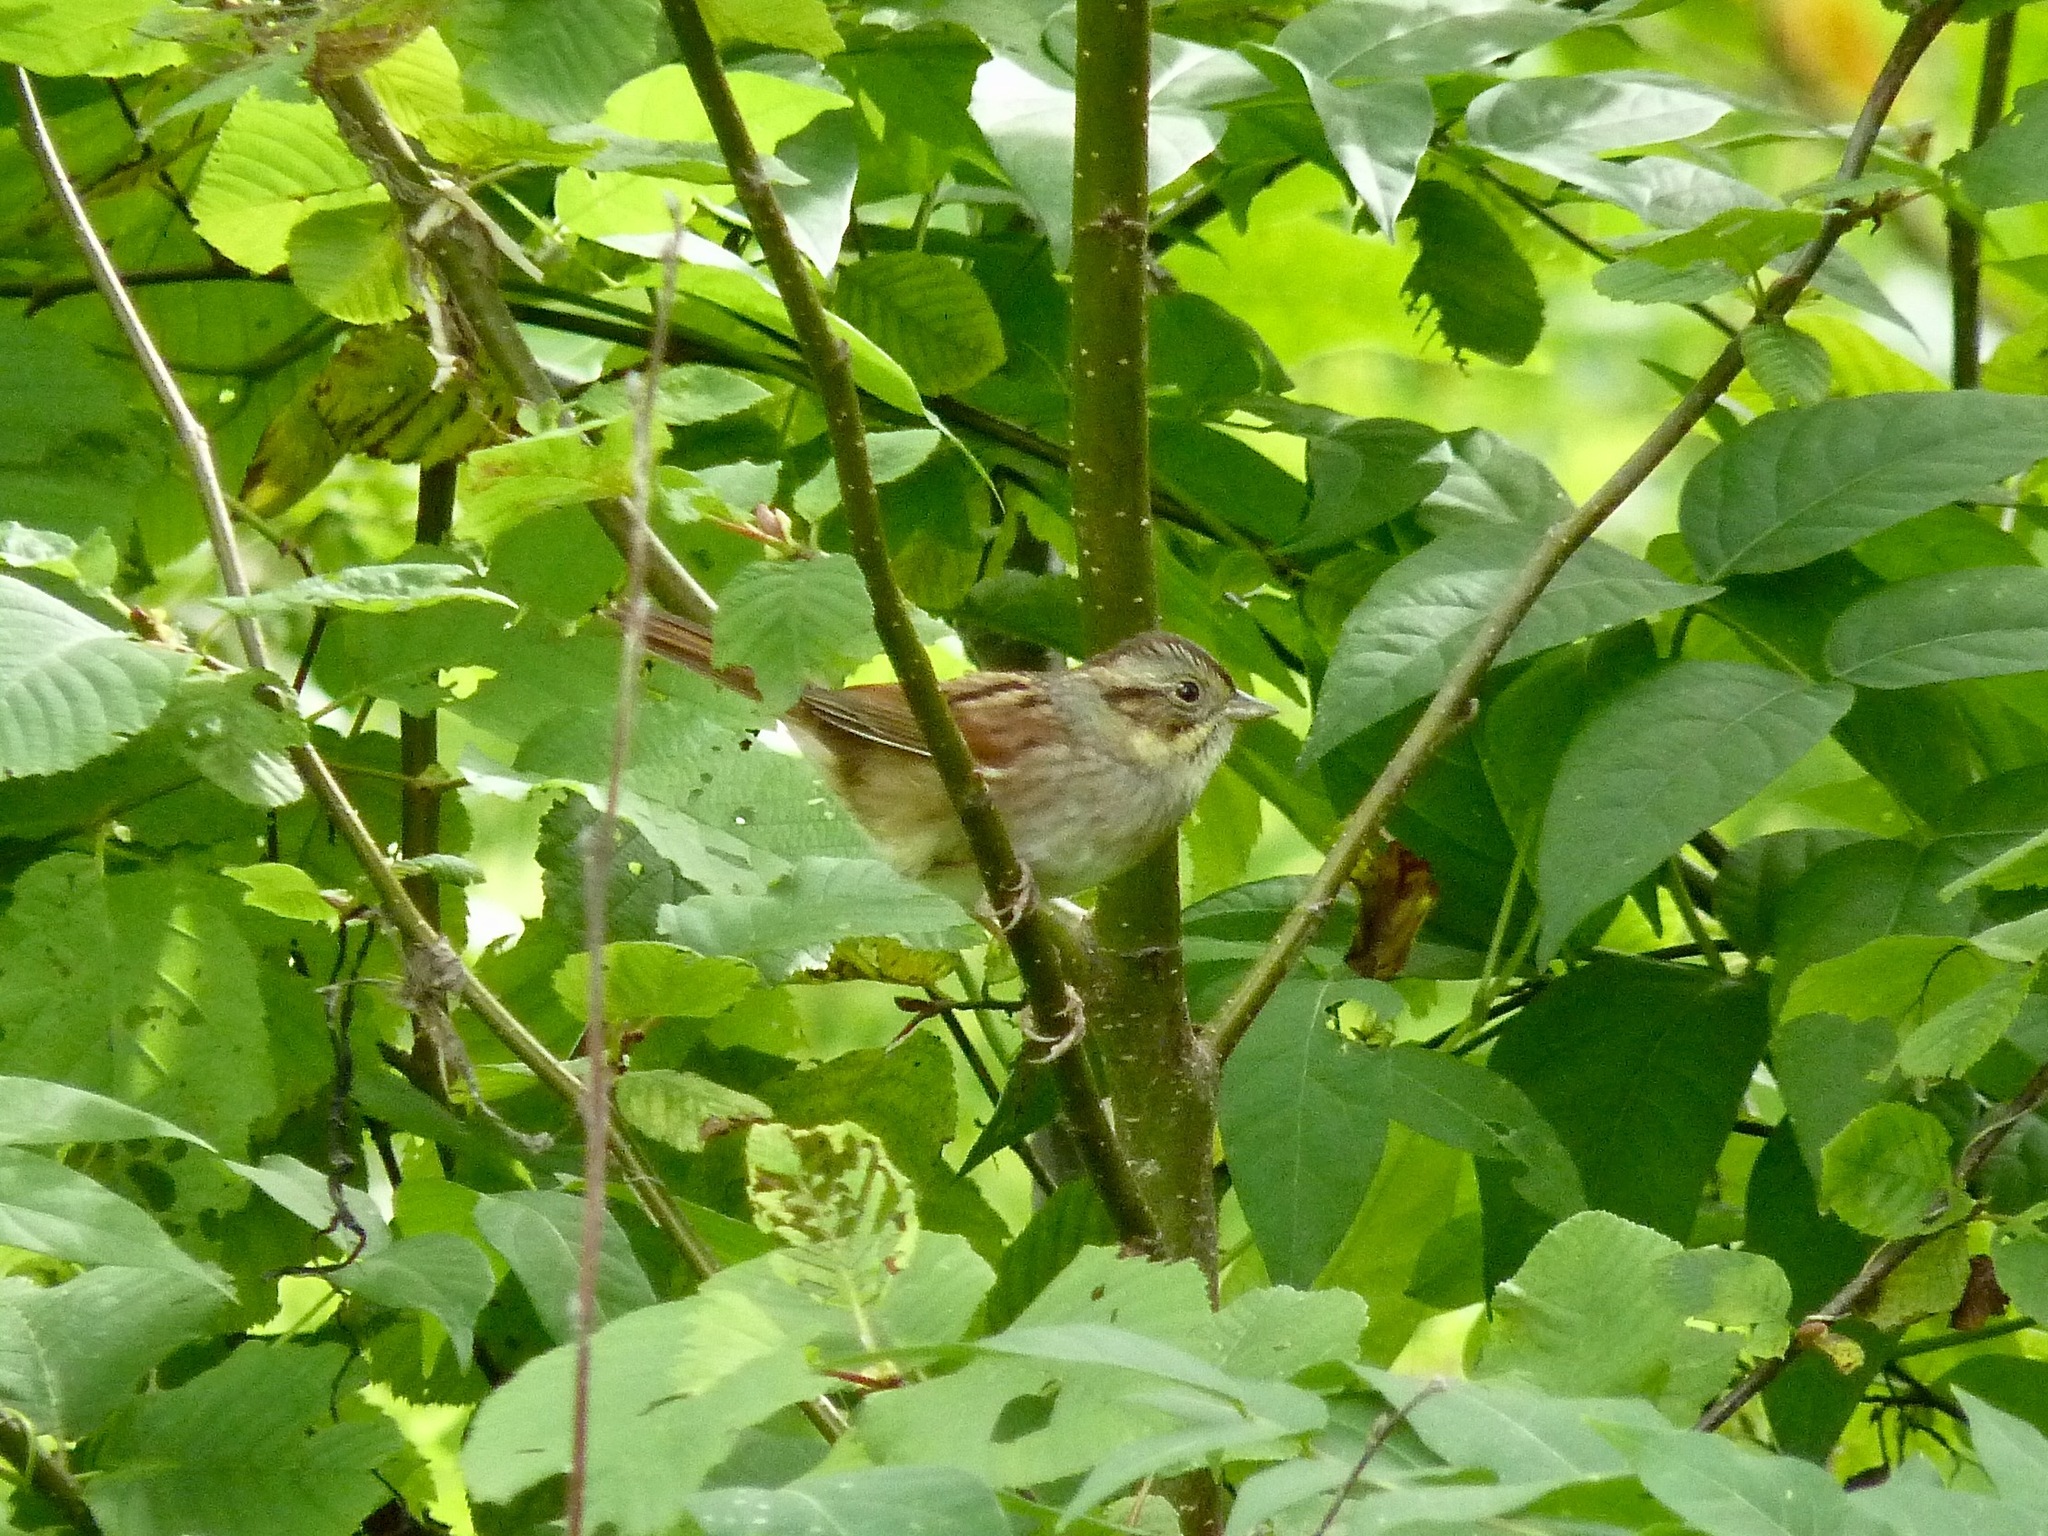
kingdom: Animalia
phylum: Chordata
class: Aves
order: Passeriformes
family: Passerellidae
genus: Melospiza
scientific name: Melospiza georgiana
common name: Swamp sparrow
